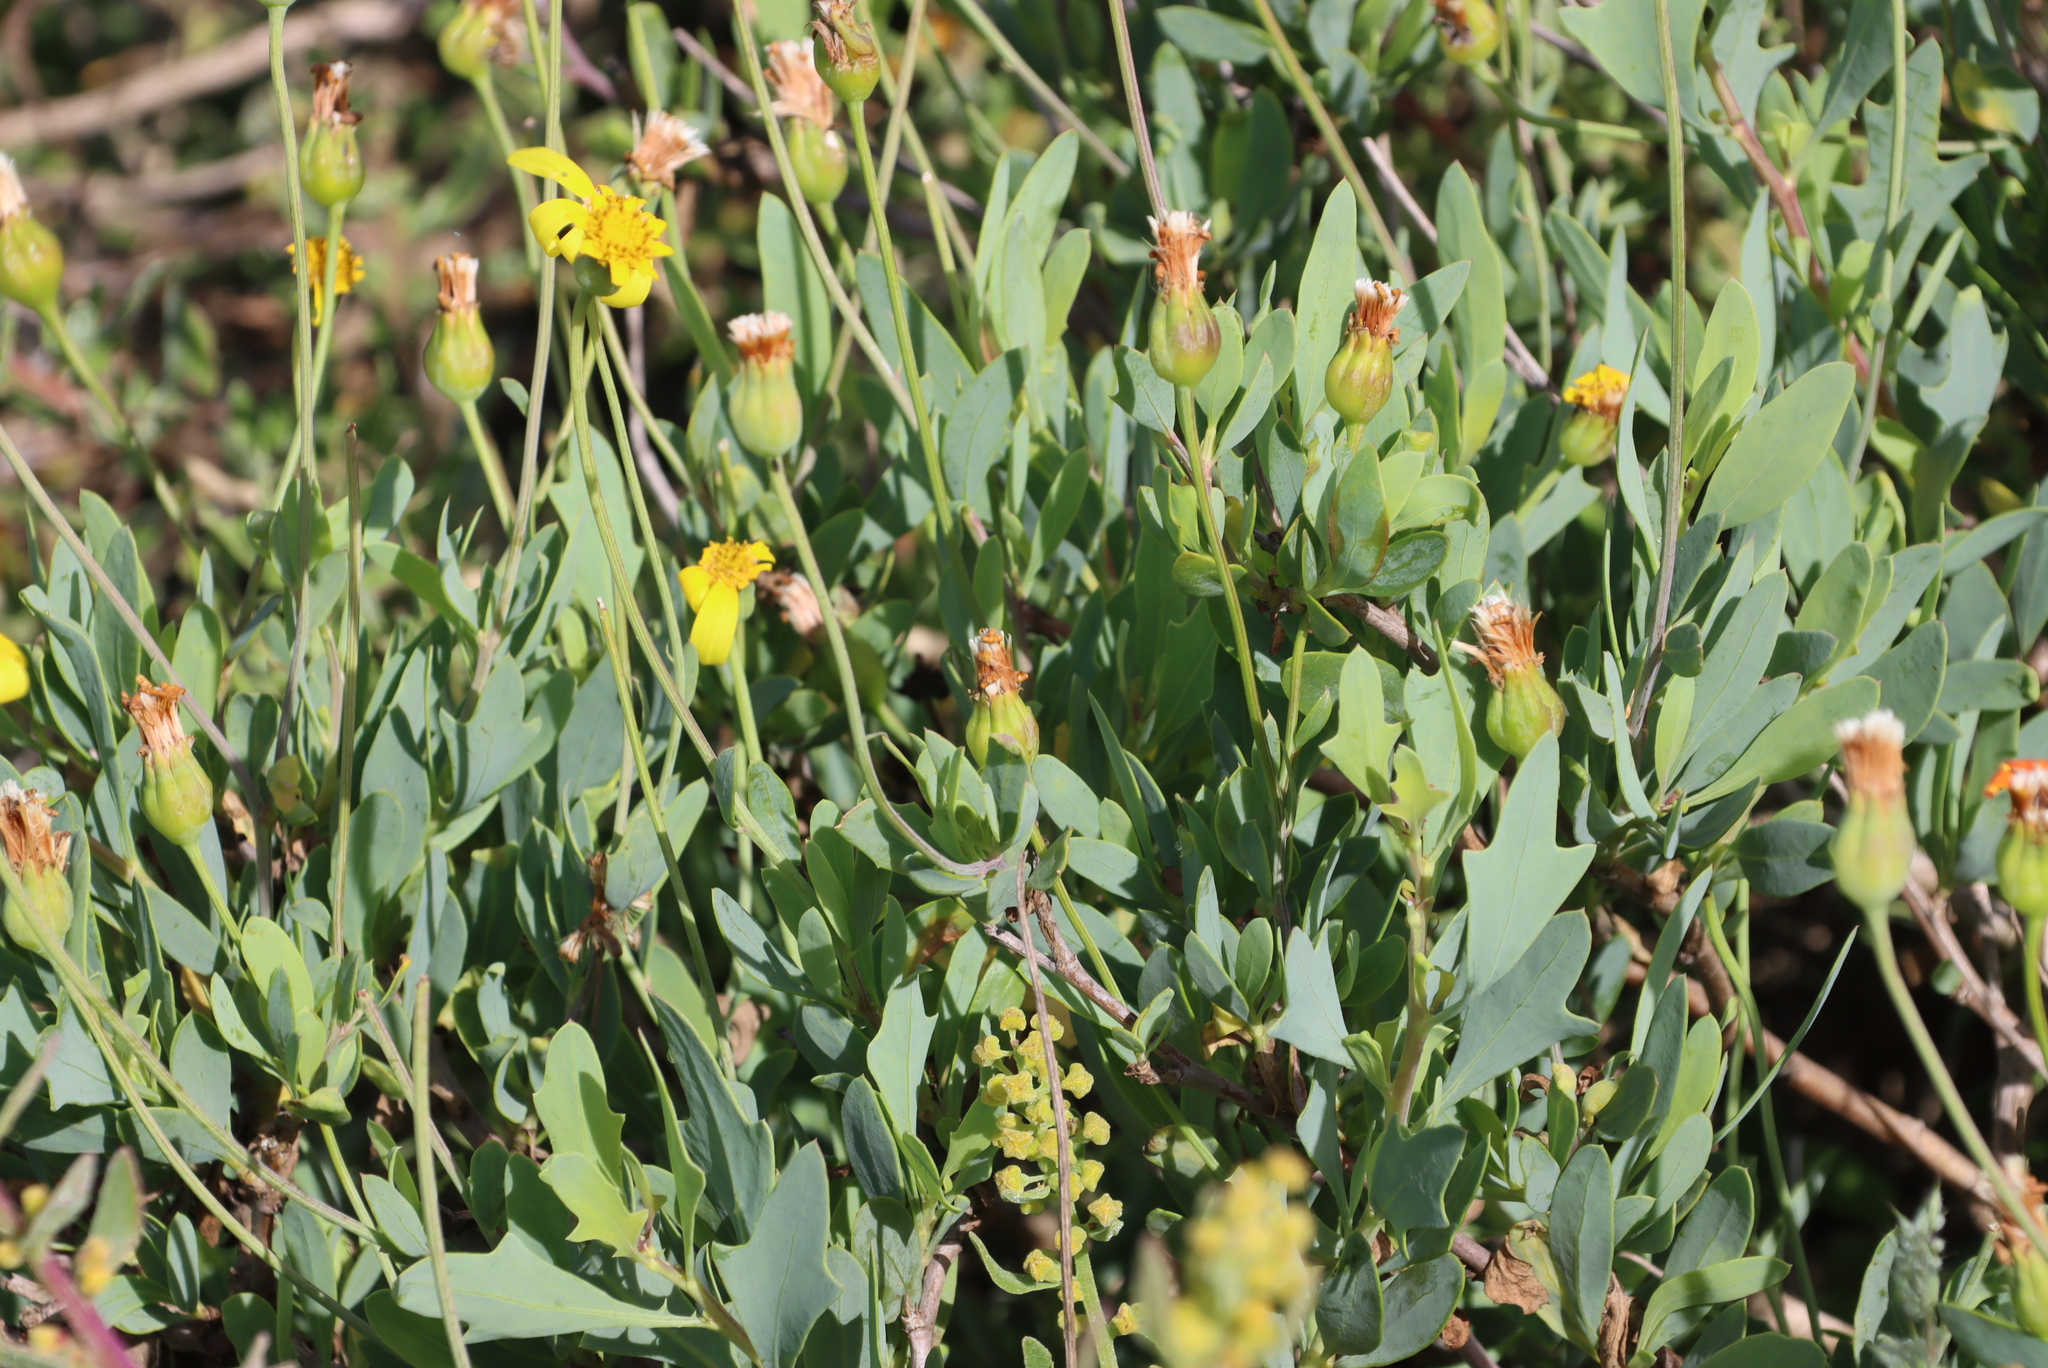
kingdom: Plantae
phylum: Tracheophyta
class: Magnoliopsida
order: Asterales
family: Asteraceae
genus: Othonna
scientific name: Othonna coronopifolia
